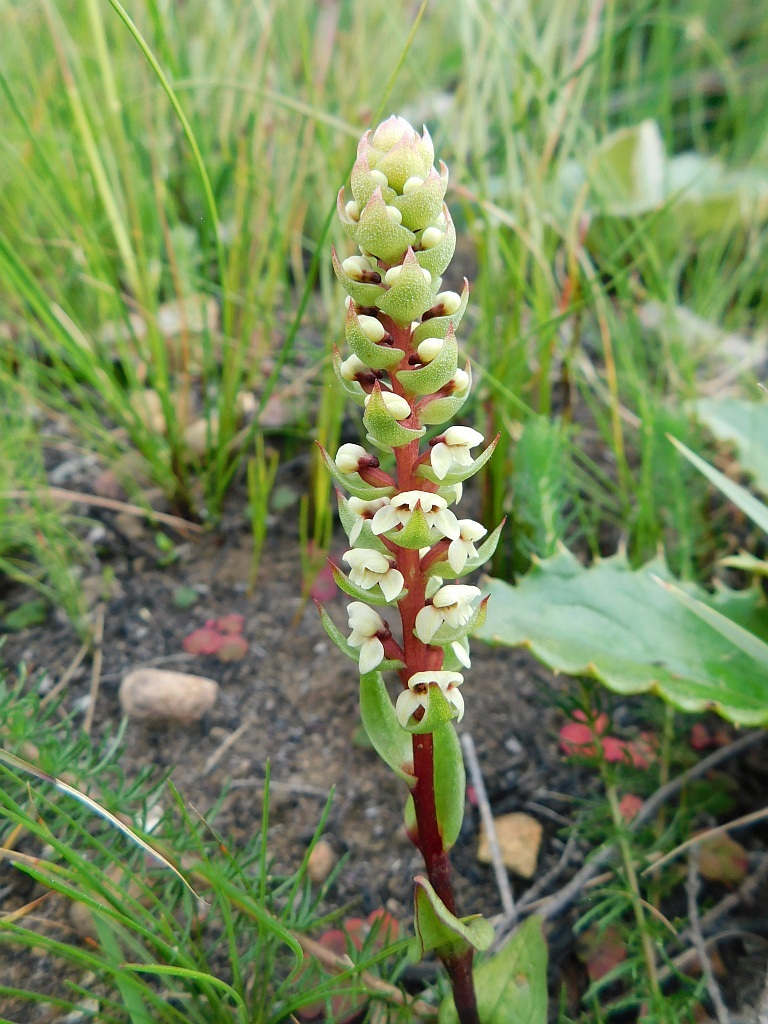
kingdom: Plantae
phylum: Tracheophyta
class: Liliopsida
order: Asparagales
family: Orchidaceae
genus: Satyrium
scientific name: Satyrium bicallosum
